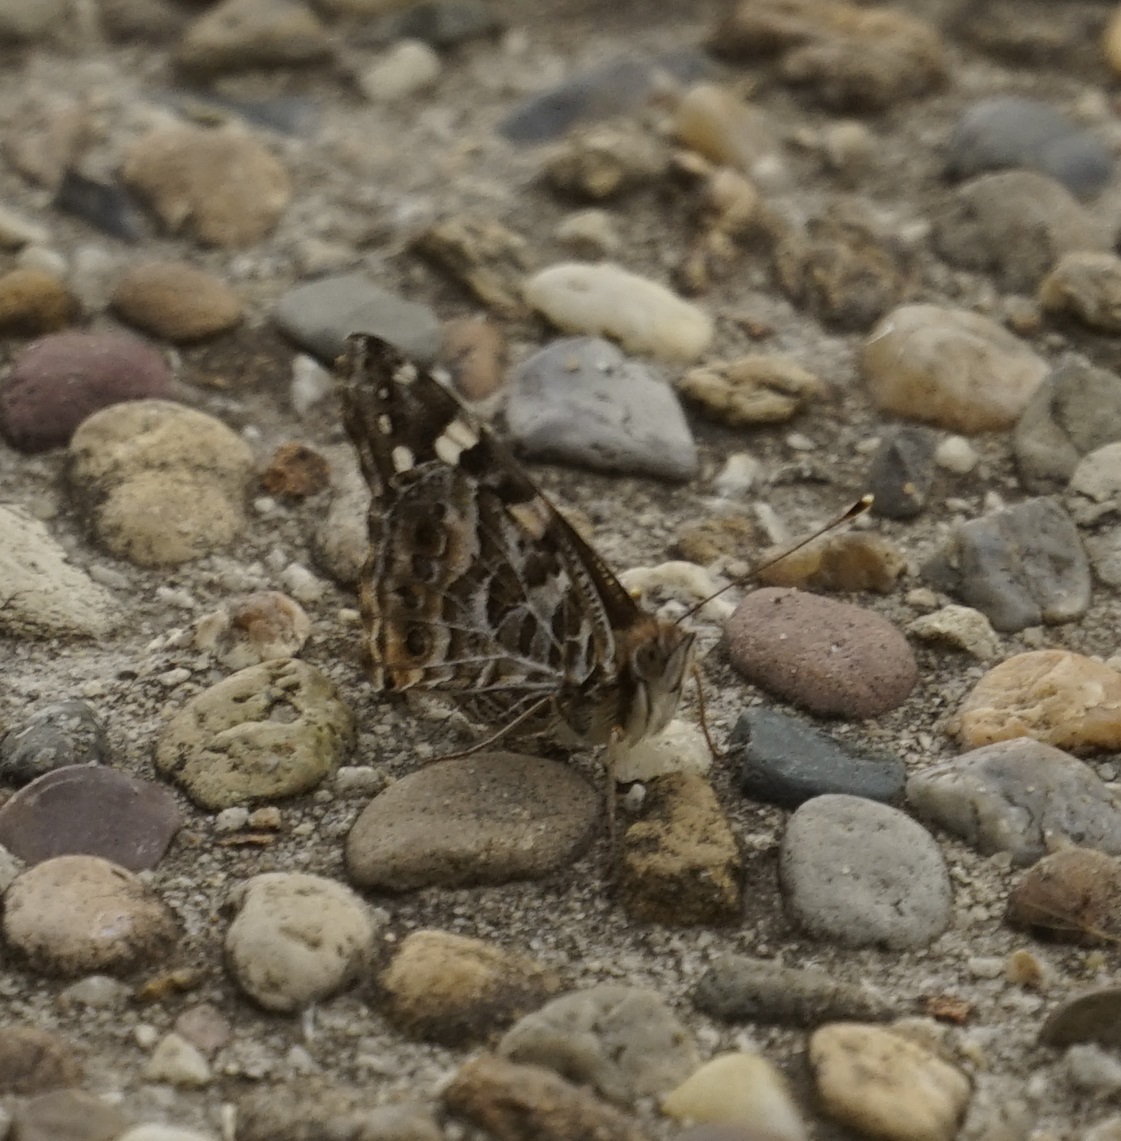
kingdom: Animalia
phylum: Arthropoda
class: Insecta
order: Lepidoptera
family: Nymphalidae
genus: Vanessa
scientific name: Vanessa kershawi
